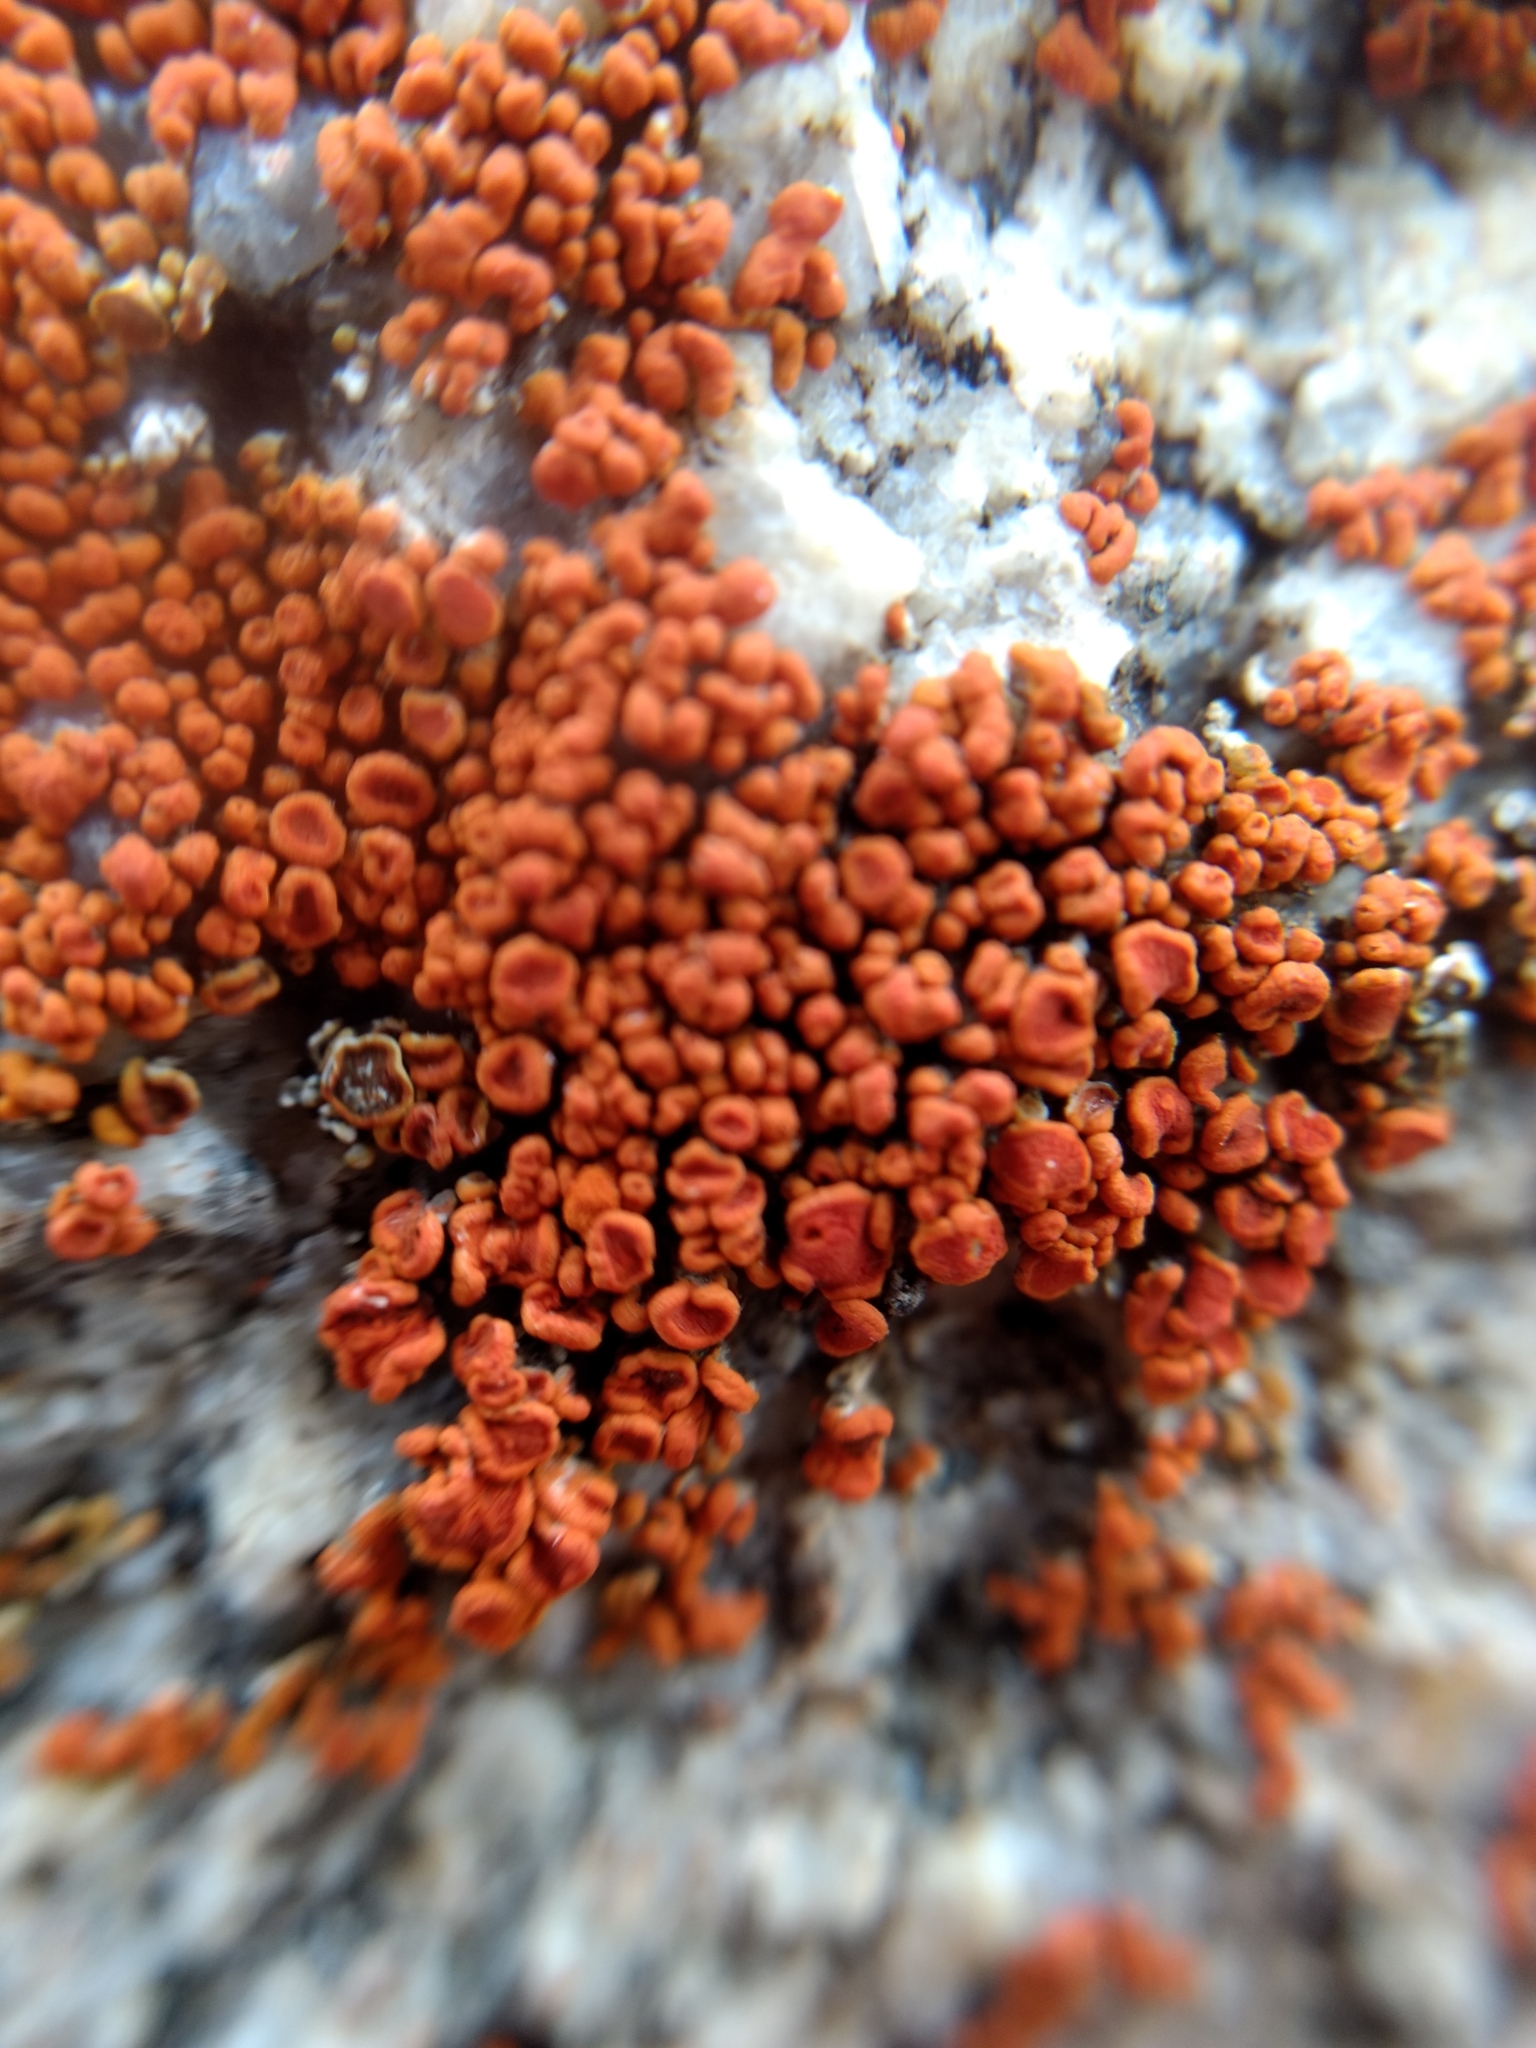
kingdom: Fungi
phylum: Ascomycota
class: Lecanoromycetes
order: Teloschistales
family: Teloschistaceae
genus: Xanthoria
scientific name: Xanthoria elegans
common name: Elegant sunburst lichen
